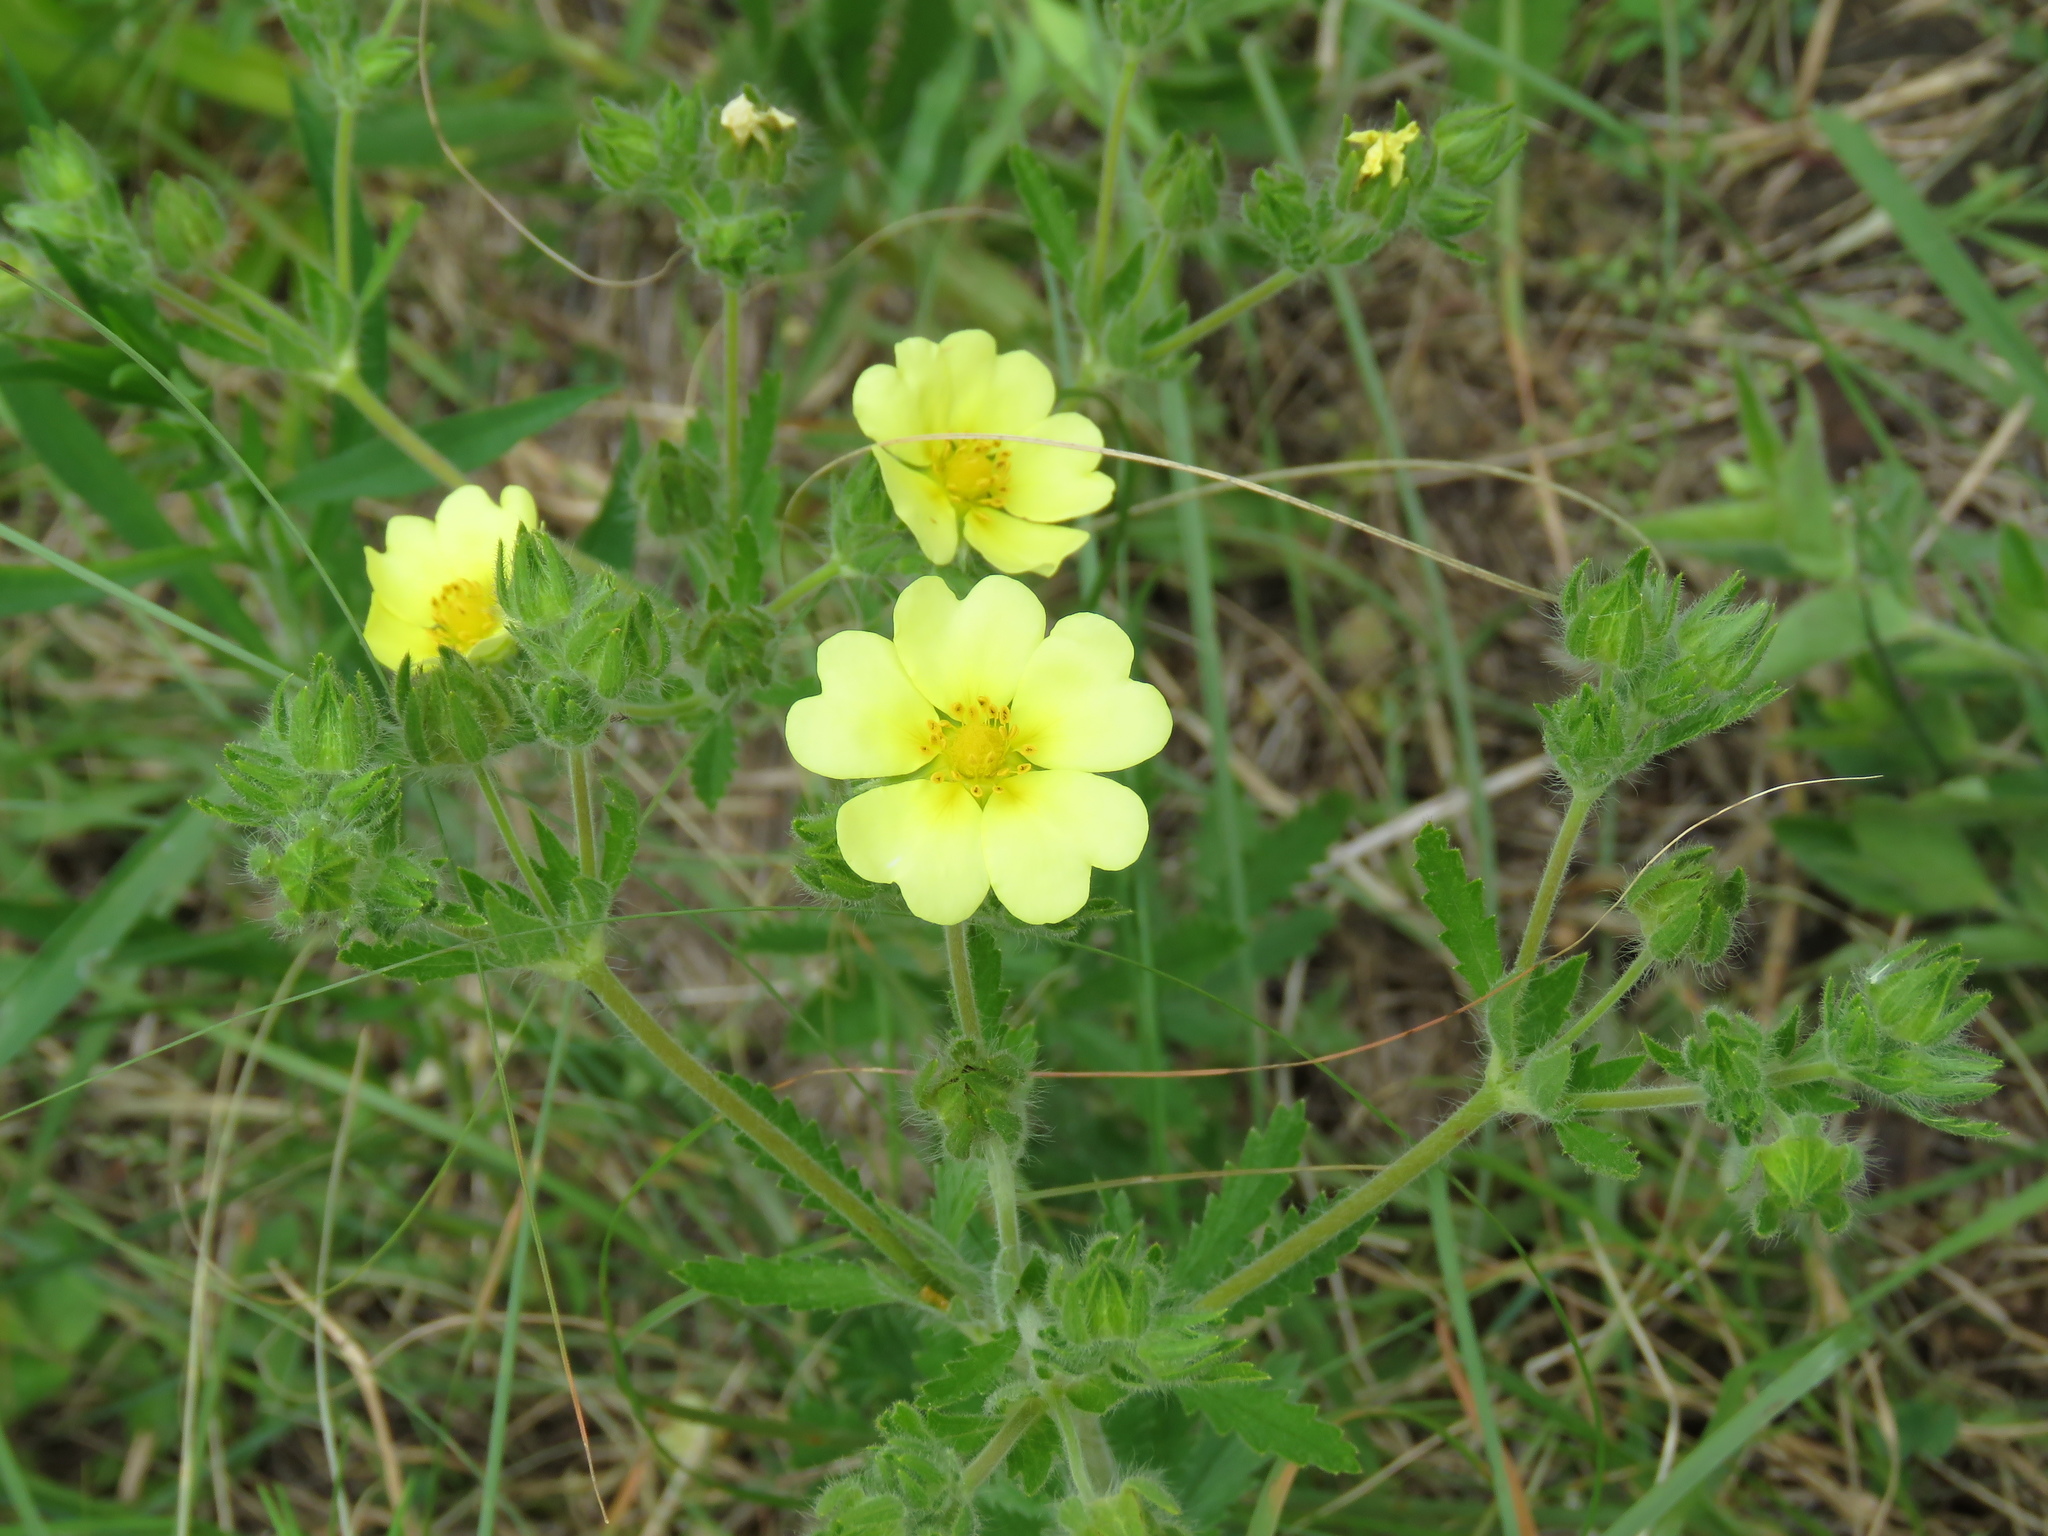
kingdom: Plantae
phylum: Tracheophyta
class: Magnoliopsida
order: Rosales
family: Rosaceae
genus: Potentilla
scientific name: Potentilla recta
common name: Sulphur cinquefoil
